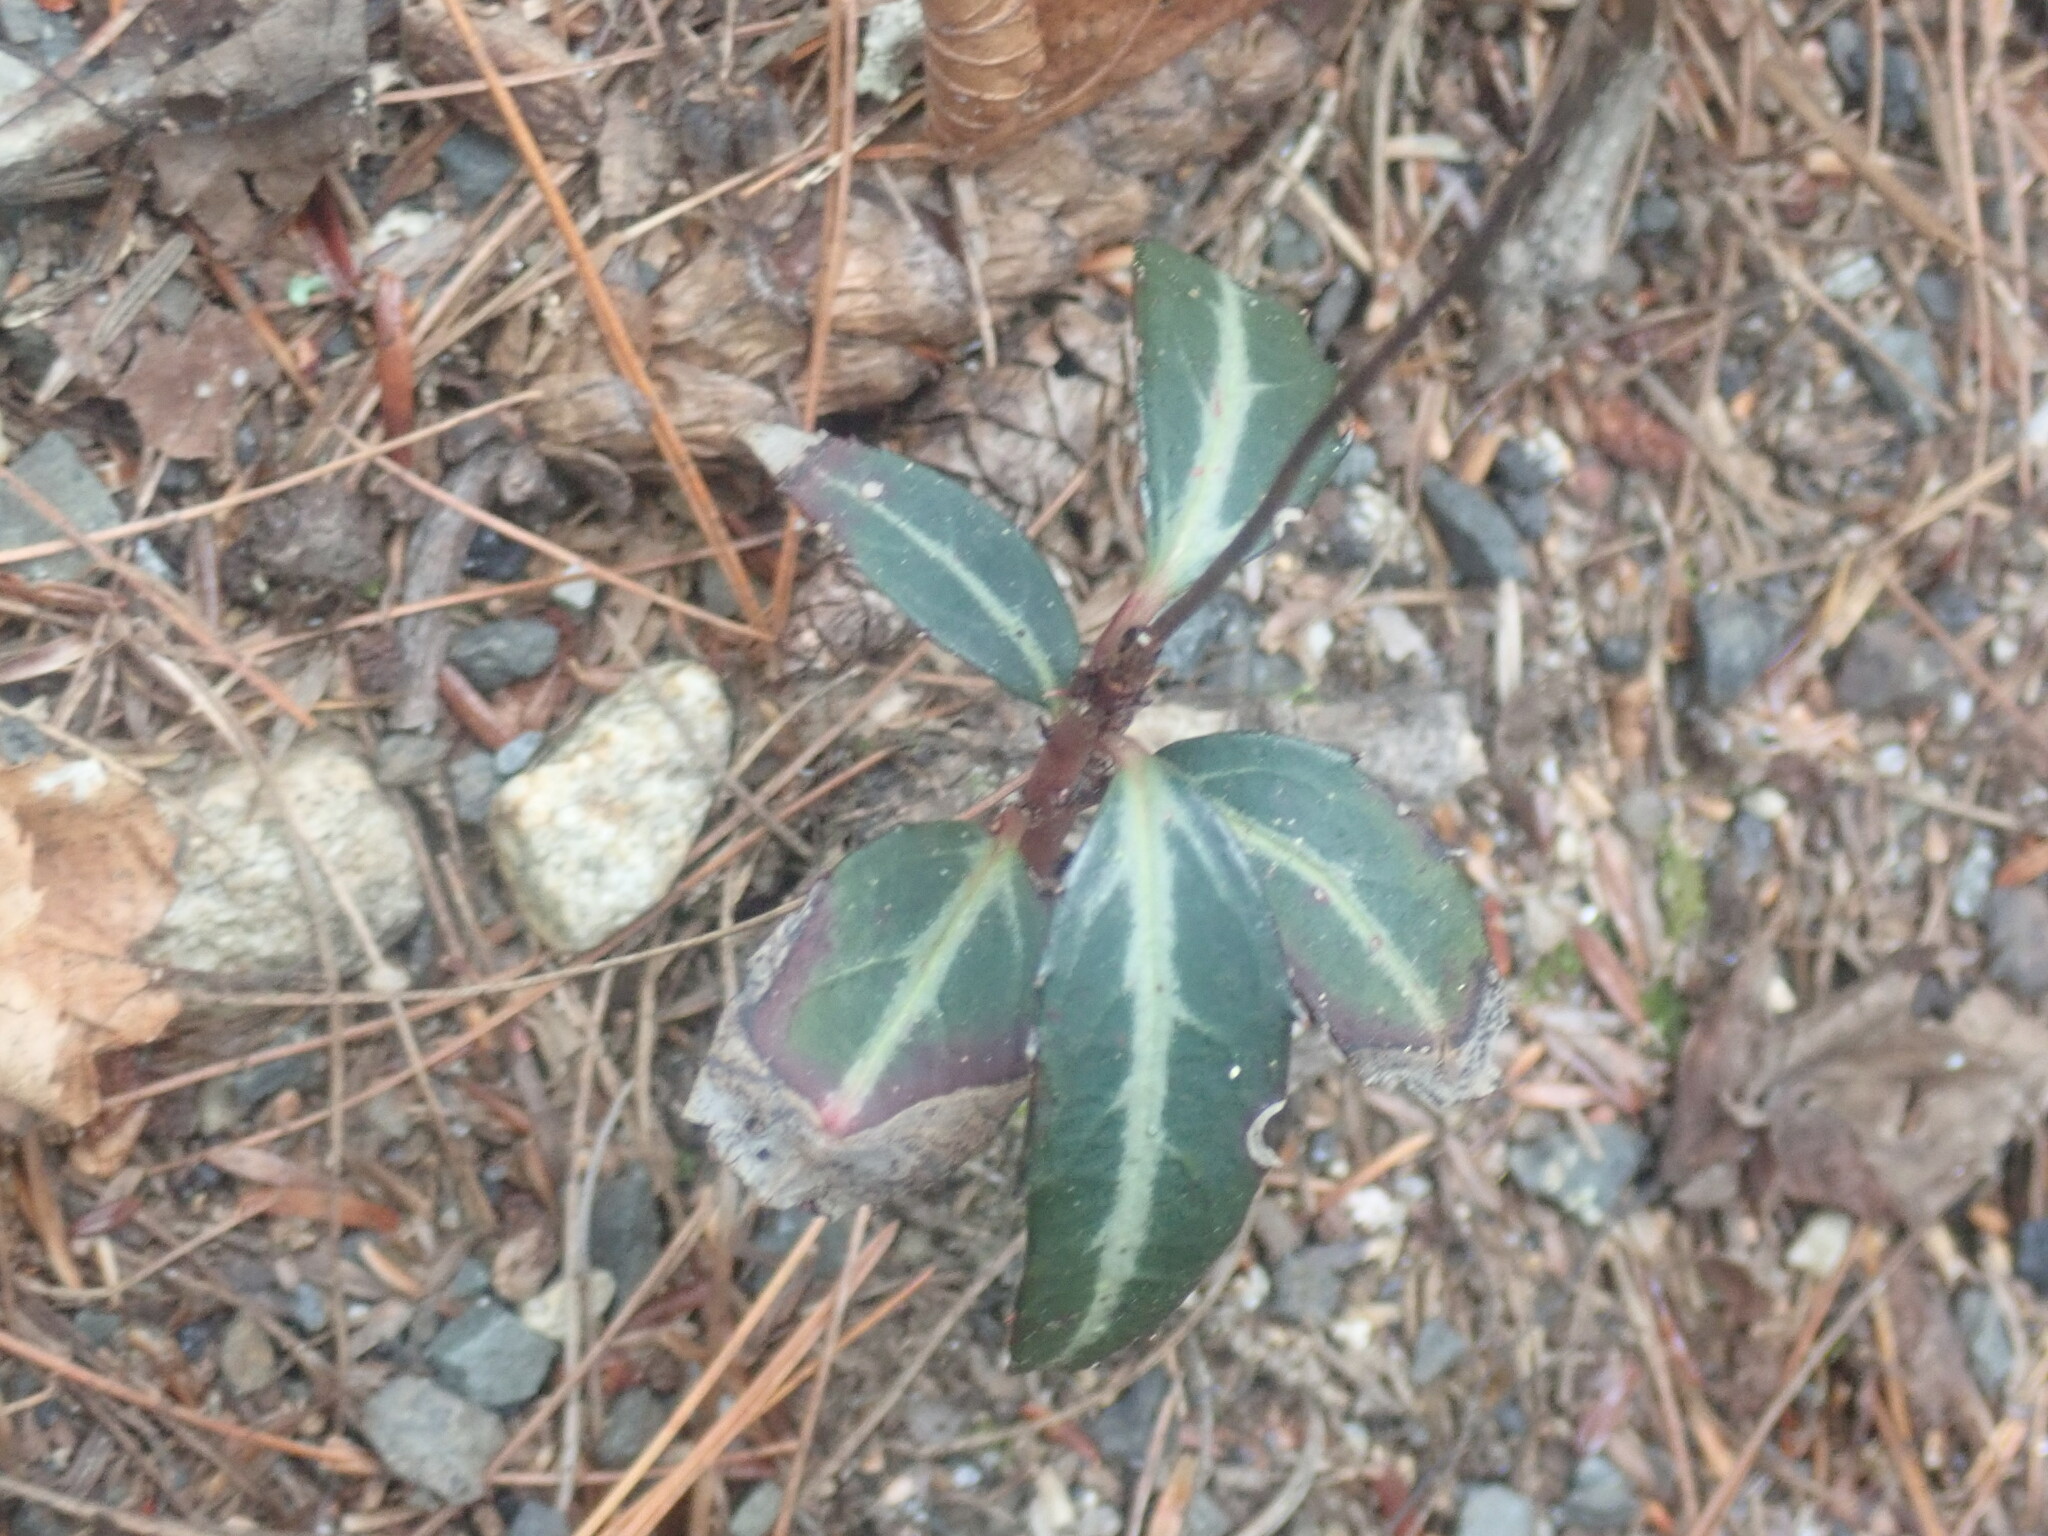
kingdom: Plantae
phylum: Tracheophyta
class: Magnoliopsida
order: Ericales
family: Ericaceae
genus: Chimaphila
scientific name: Chimaphila maculata
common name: Spotted pipsissewa
